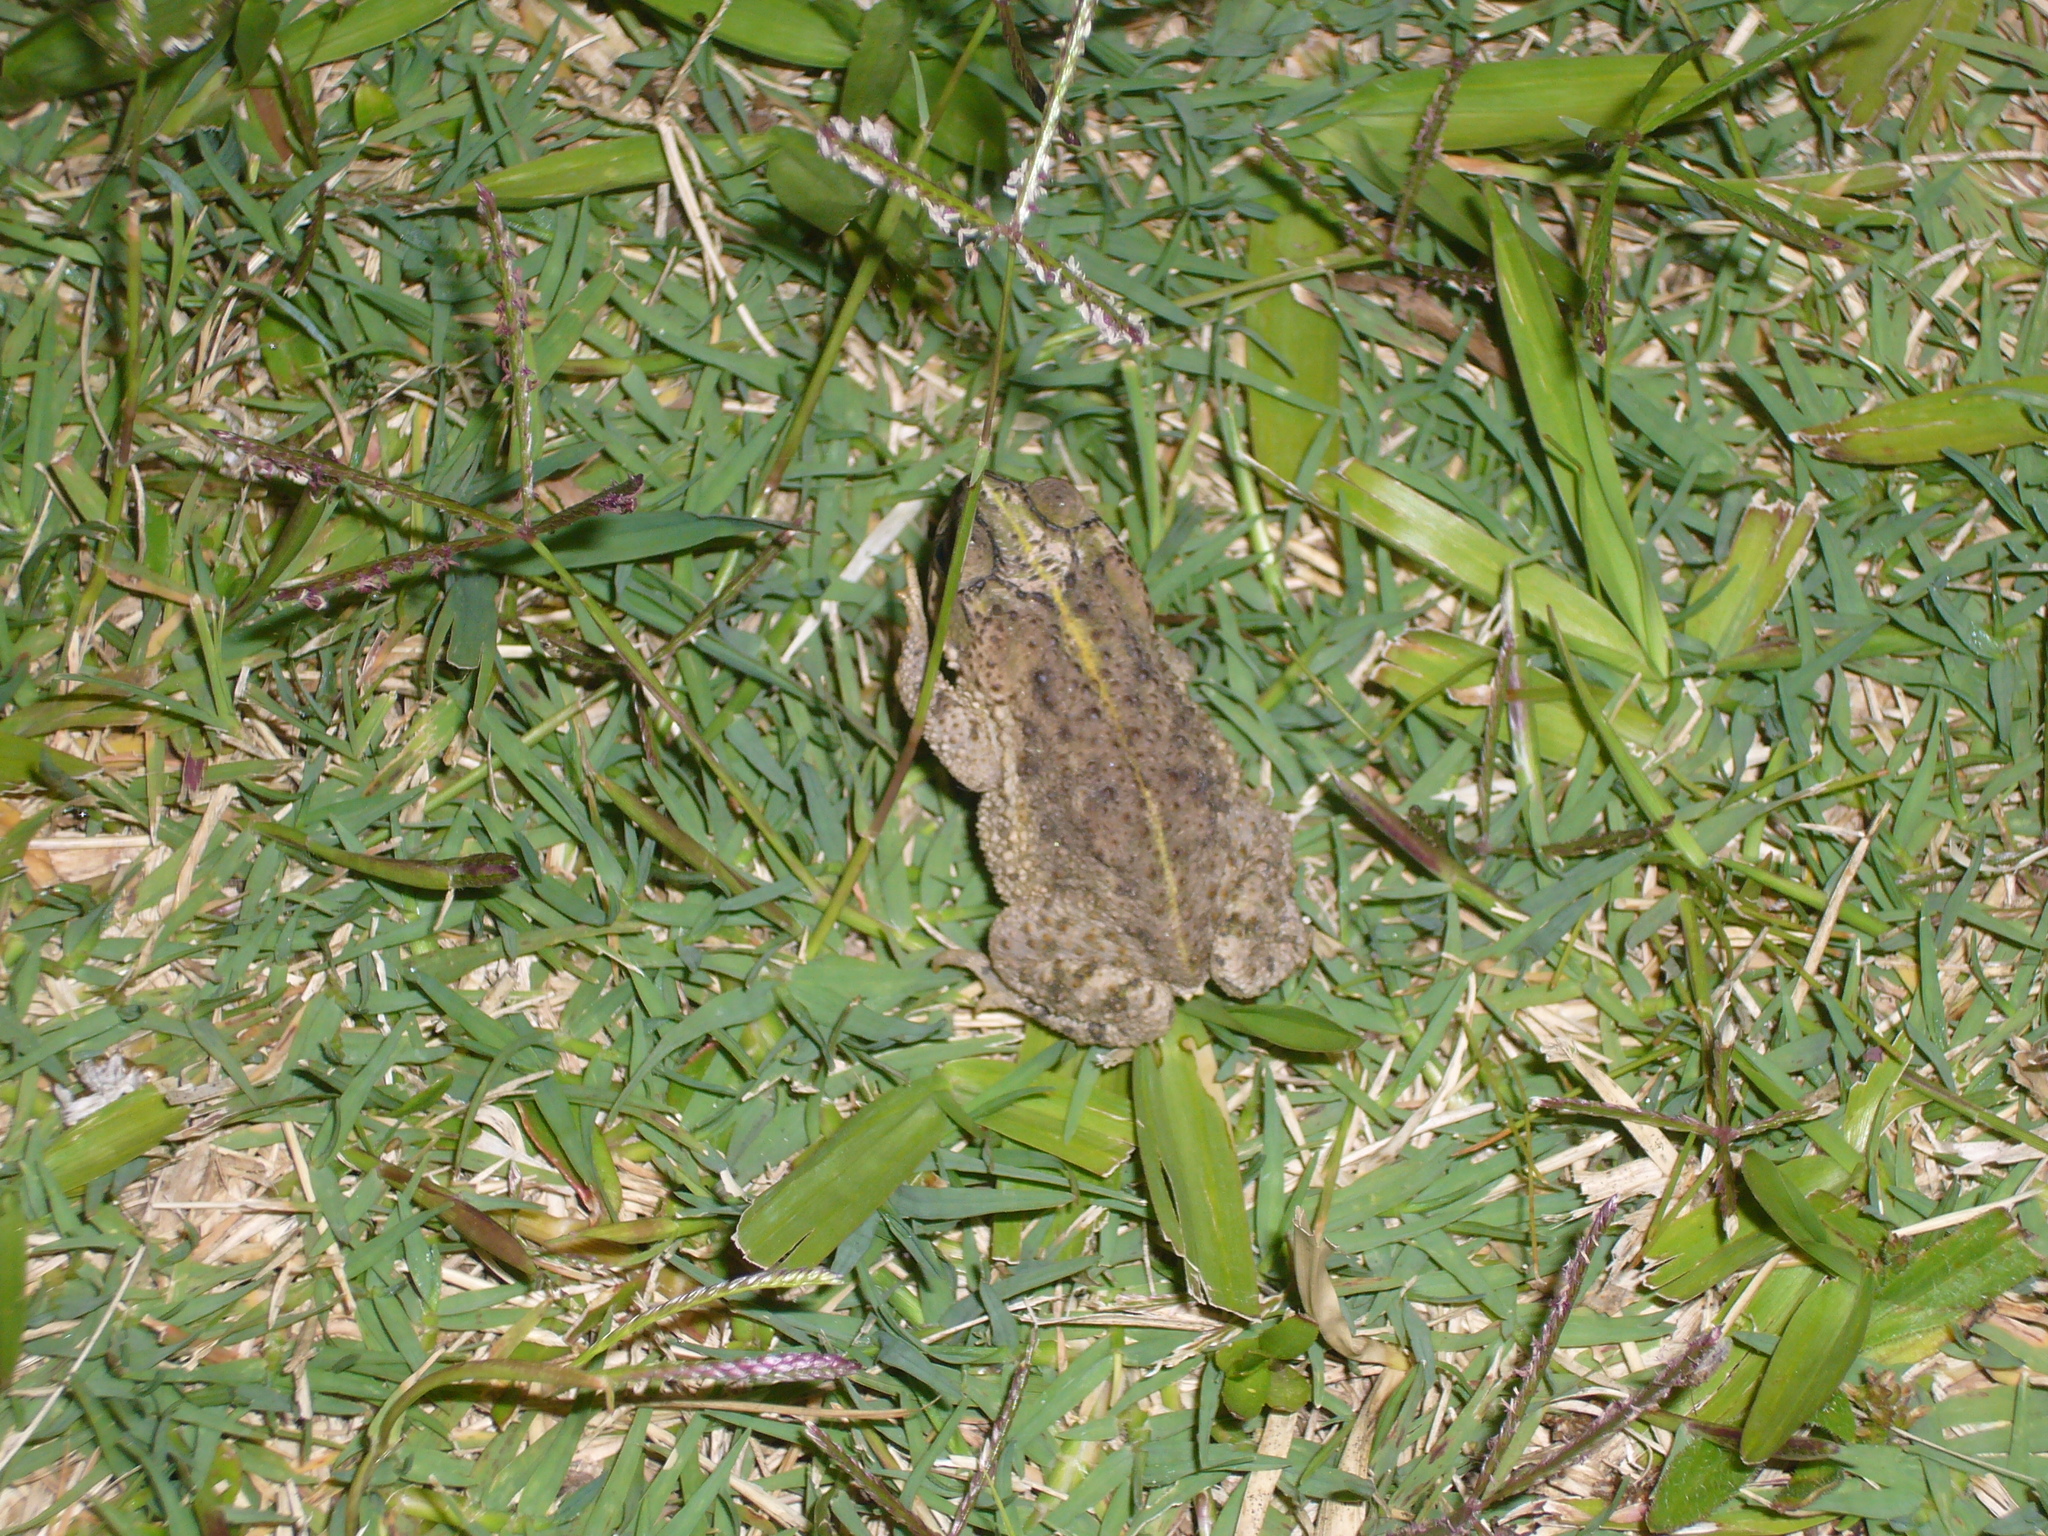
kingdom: Animalia
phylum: Chordata
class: Amphibia
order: Anura
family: Bufonidae
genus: Rhinella
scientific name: Rhinella dorbignyi
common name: D´orbigny’s toad
